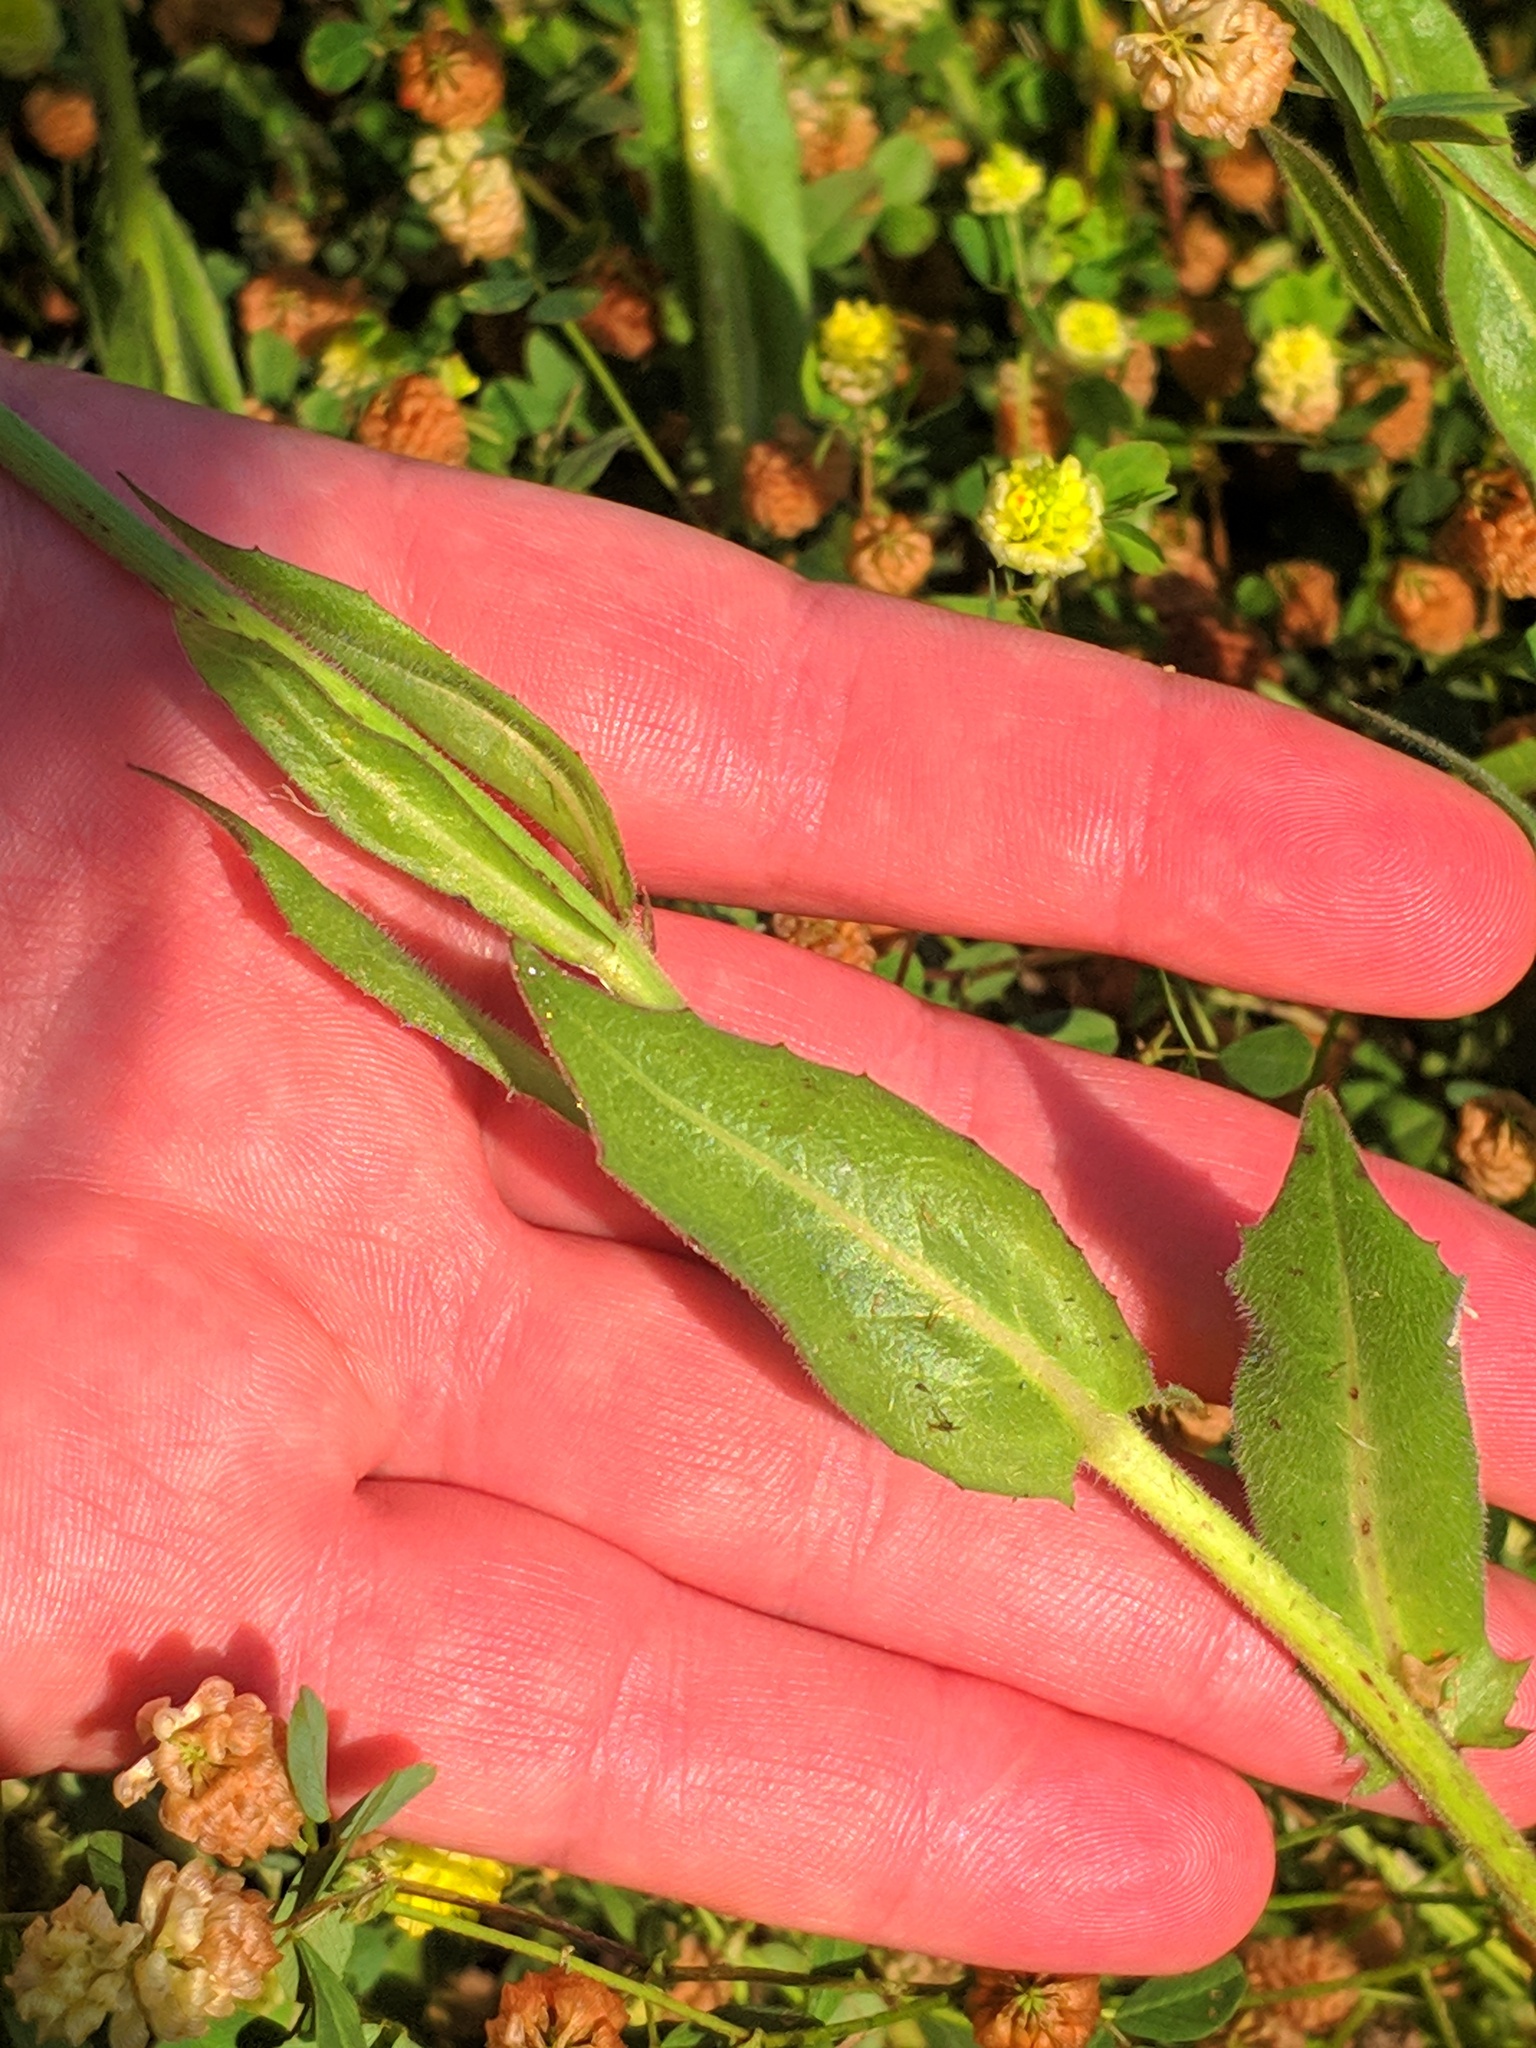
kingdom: Plantae
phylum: Tracheophyta
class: Magnoliopsida
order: Asterales
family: Asteraceae
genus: Urospermum
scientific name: Urospermum dalechampii
